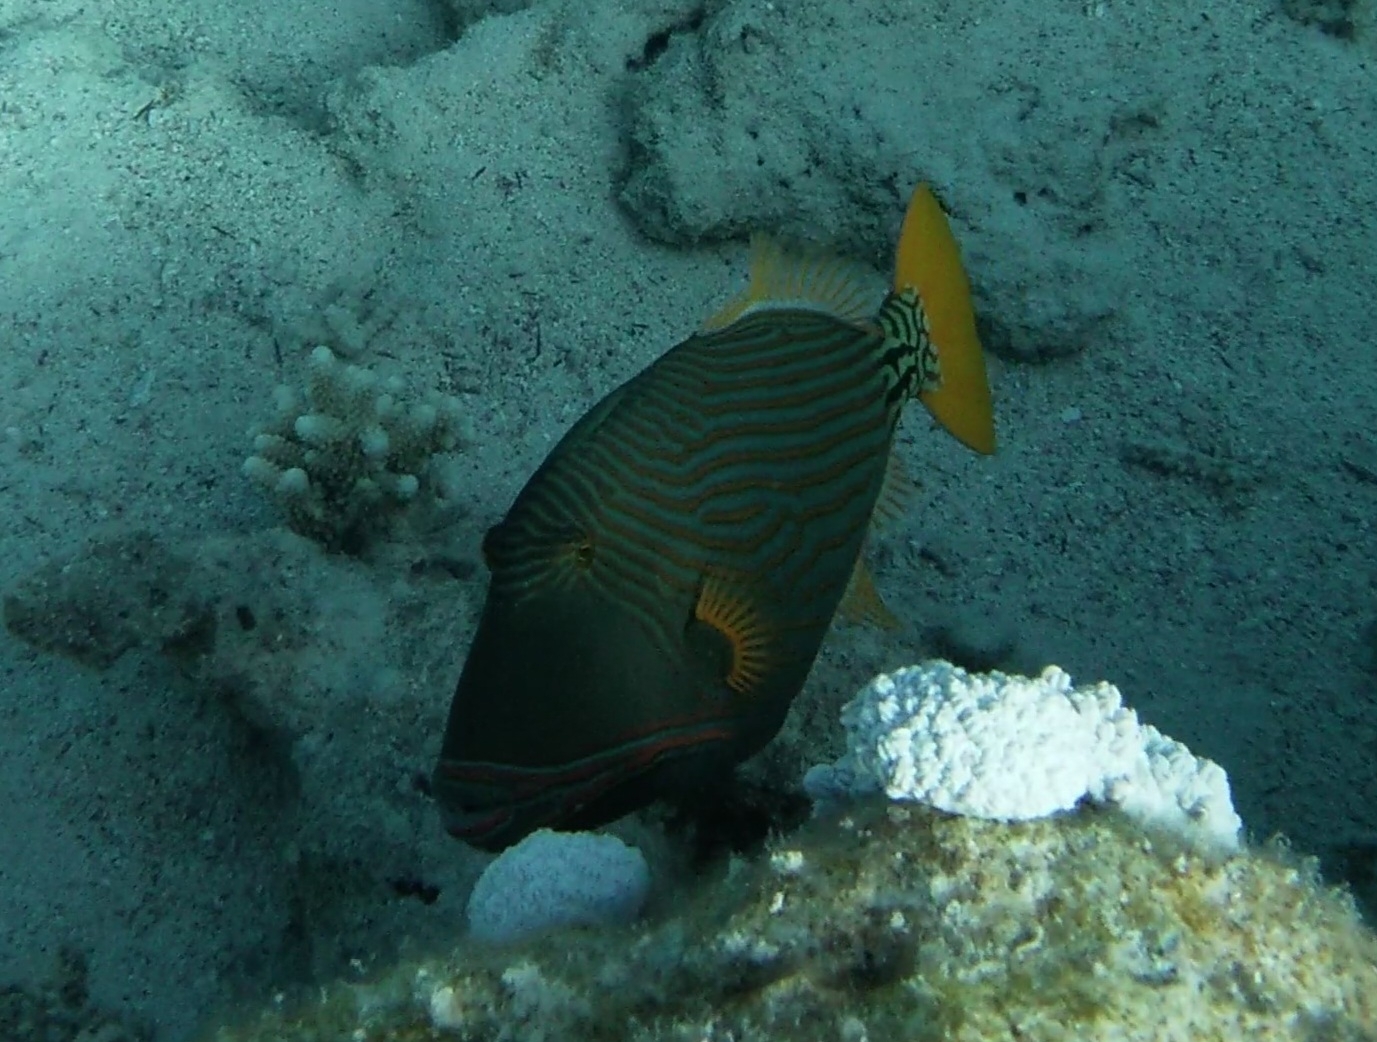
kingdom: Animalia
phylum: Chordata
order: Tetraodontiformes
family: Balistidae
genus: Balistapus
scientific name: Balistapus undulatus
